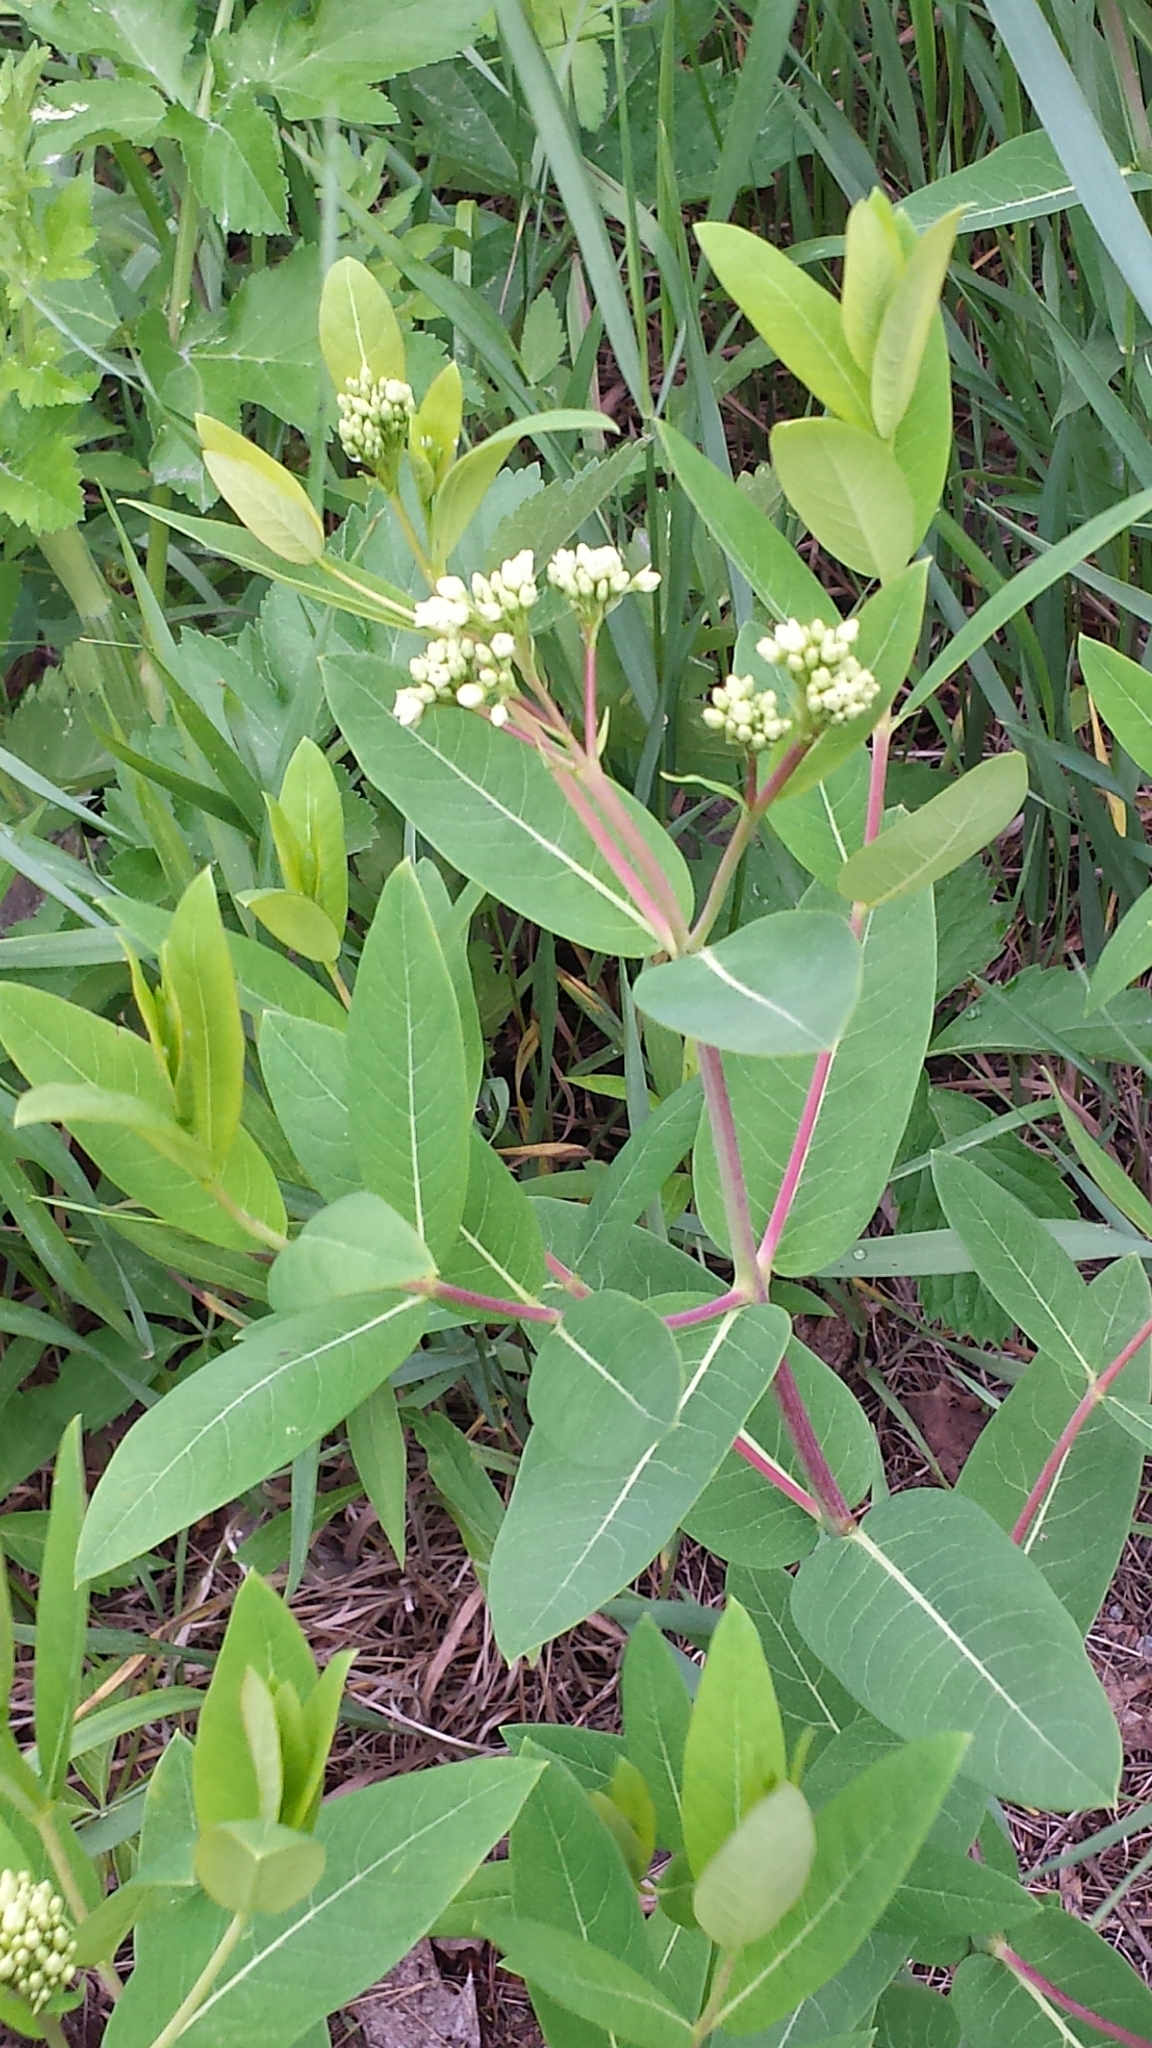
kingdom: Plantae
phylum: Tracheophyta
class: Magnoliopsida
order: Gentianales
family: Apocynaceae
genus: Apocynum
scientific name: Apocynum cannabinum
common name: Hemp dogbane
